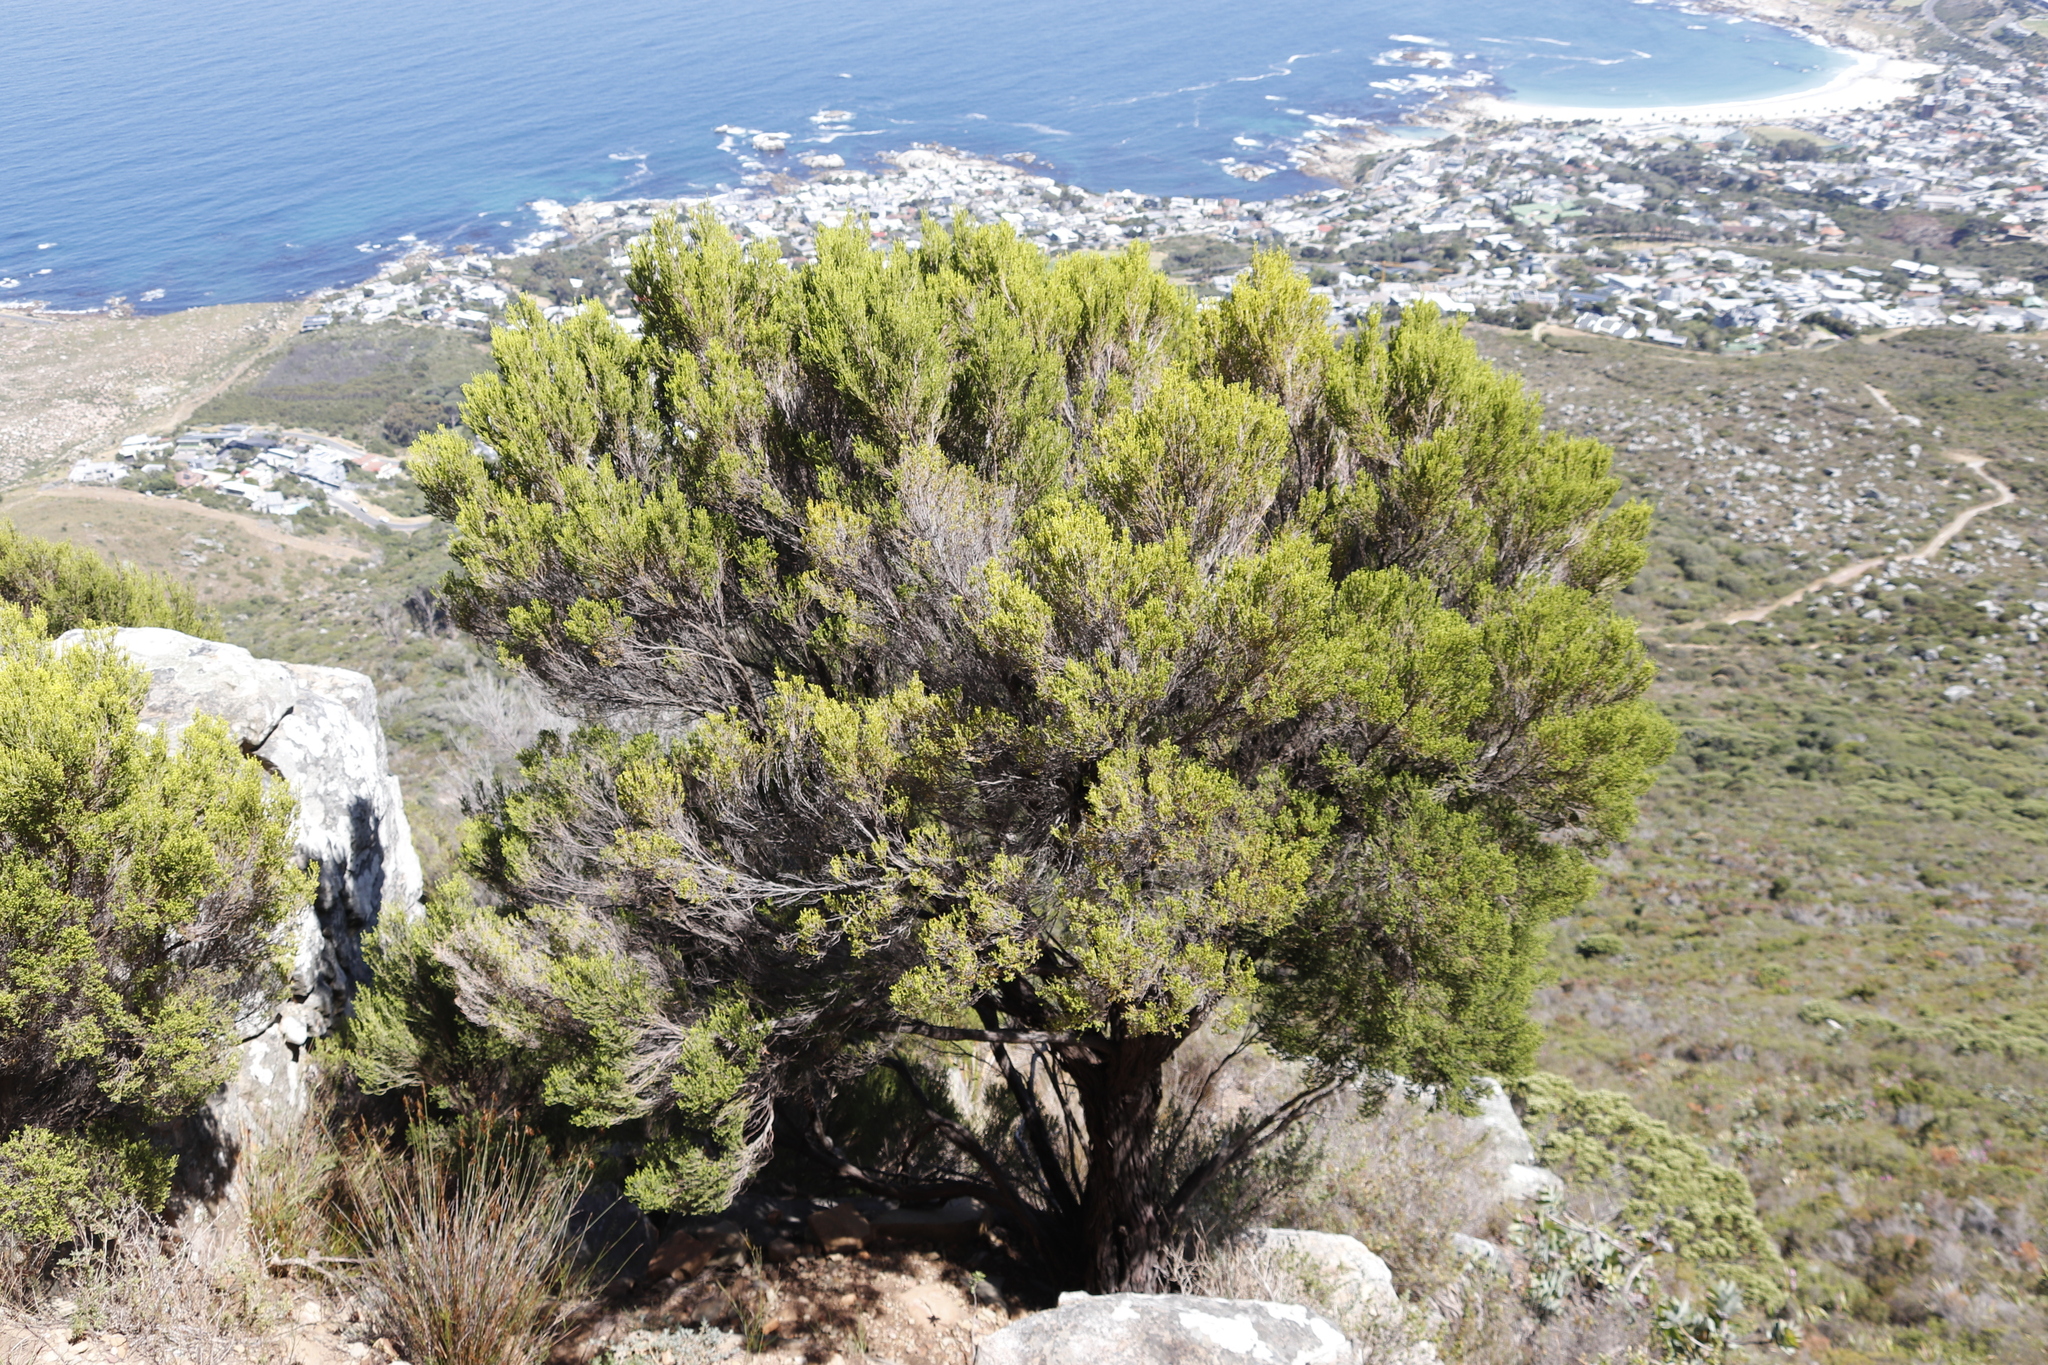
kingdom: Plantae
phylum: Tracheophyta
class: Magnoliopsida
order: Ericales
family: Ericaceae
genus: Erica
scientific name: Erica tristis
